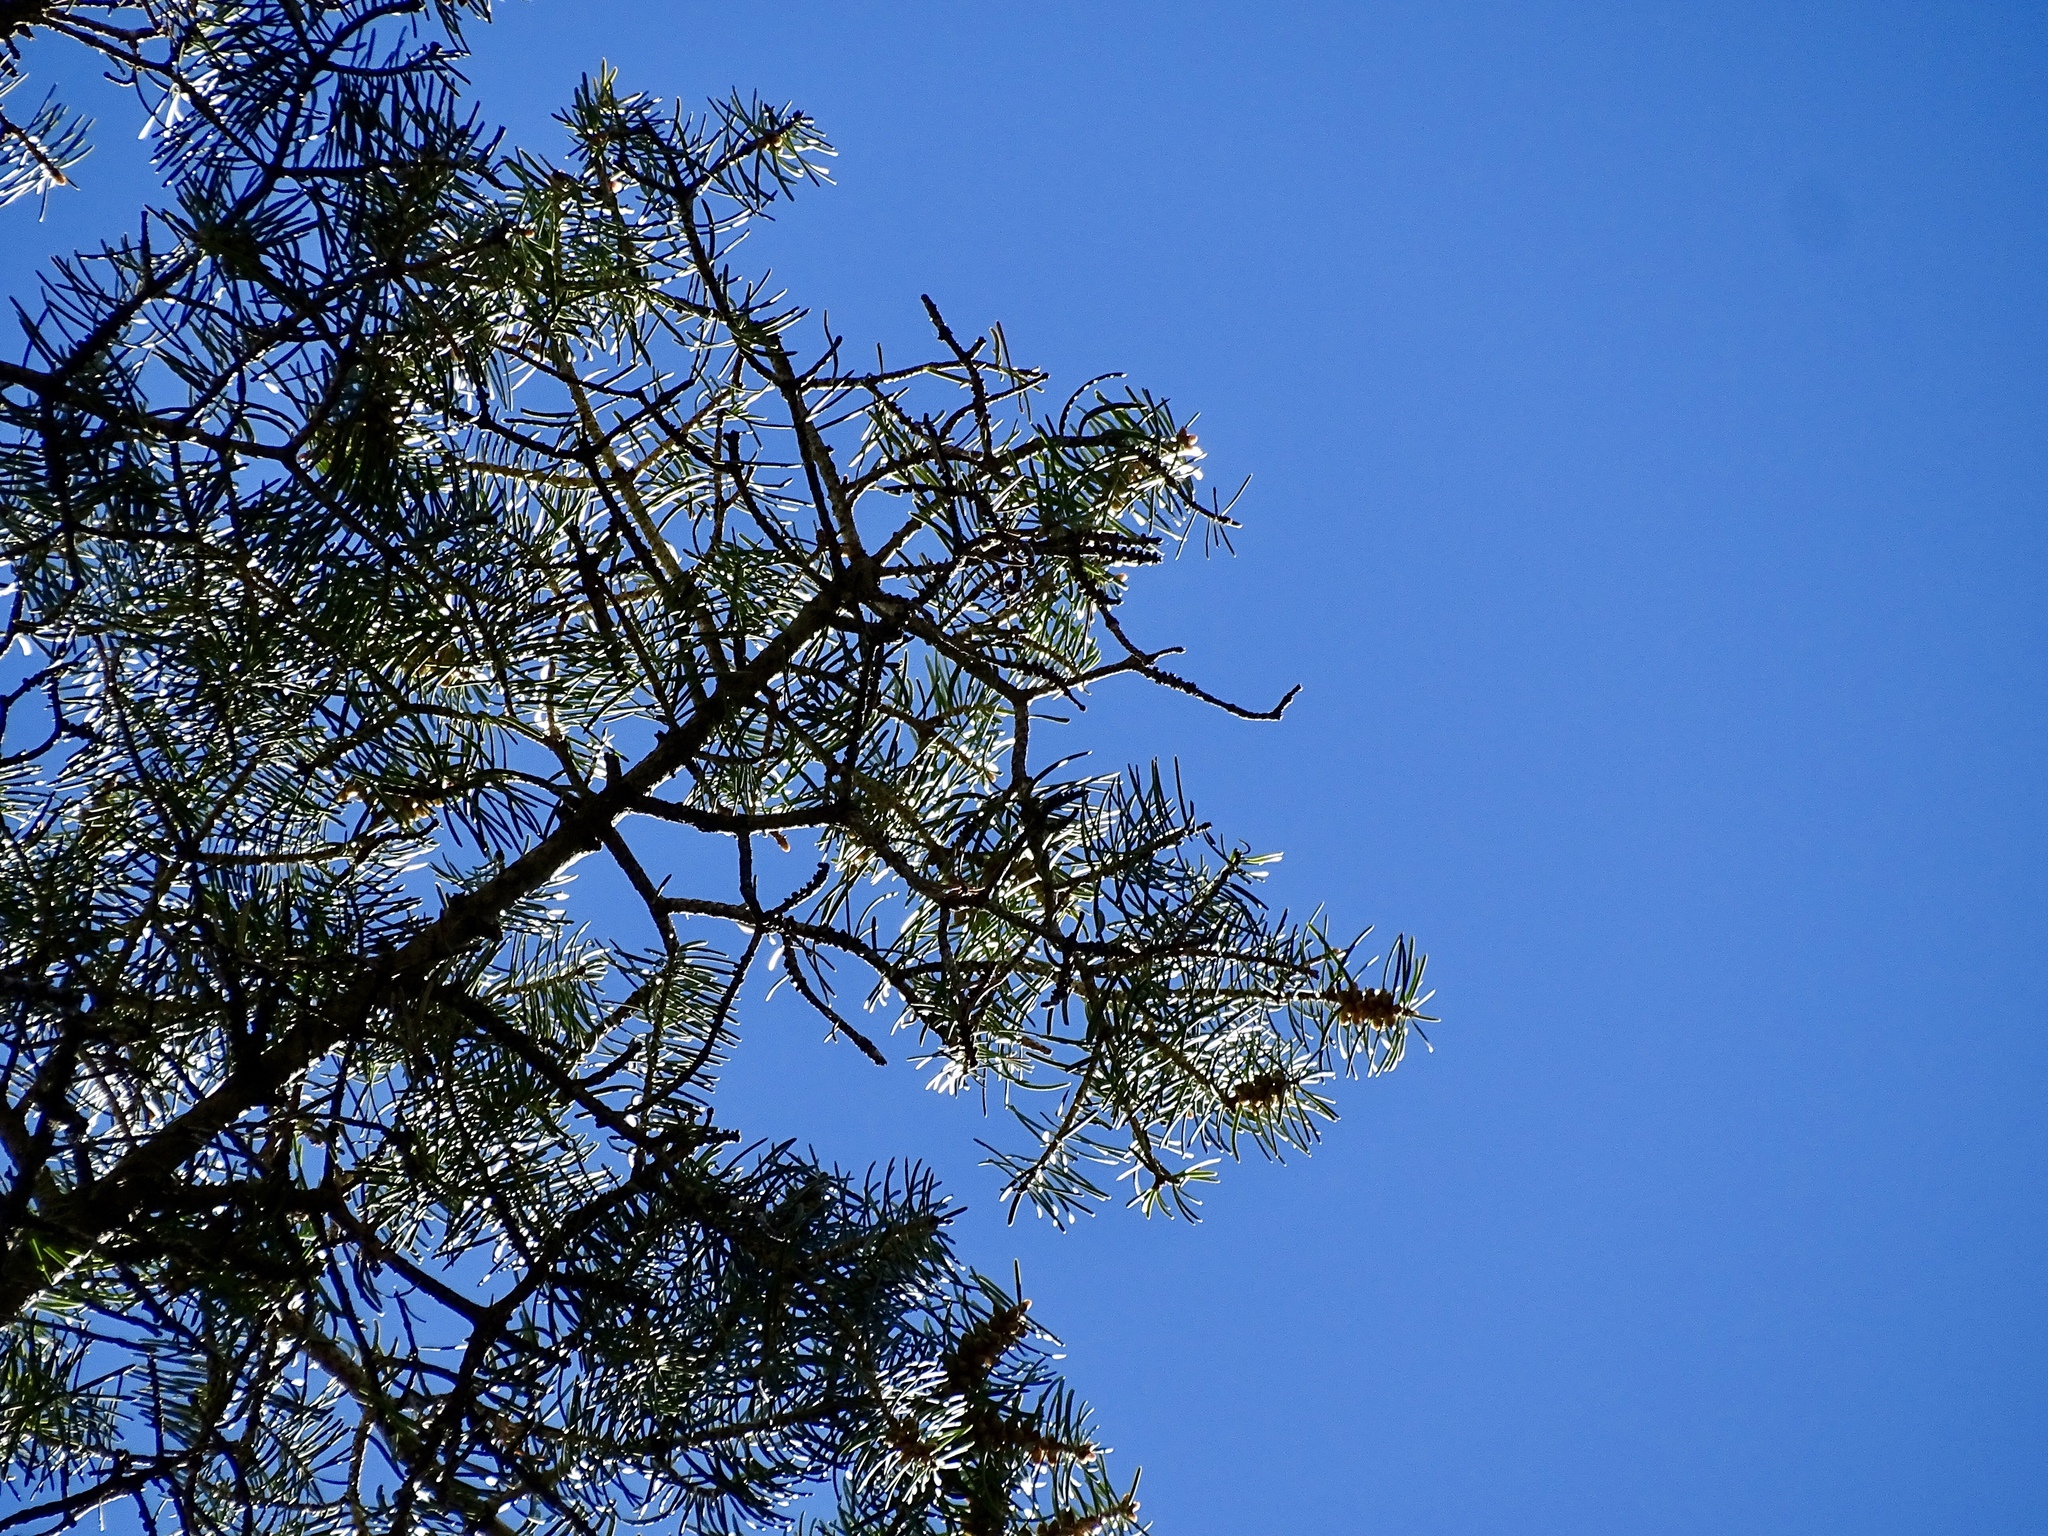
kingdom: Plantae
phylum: Tracheophyta
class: Pinopsida
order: Pinales
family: Pinaceae
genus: Abies
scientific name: Abies concolor
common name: Colorado fir
